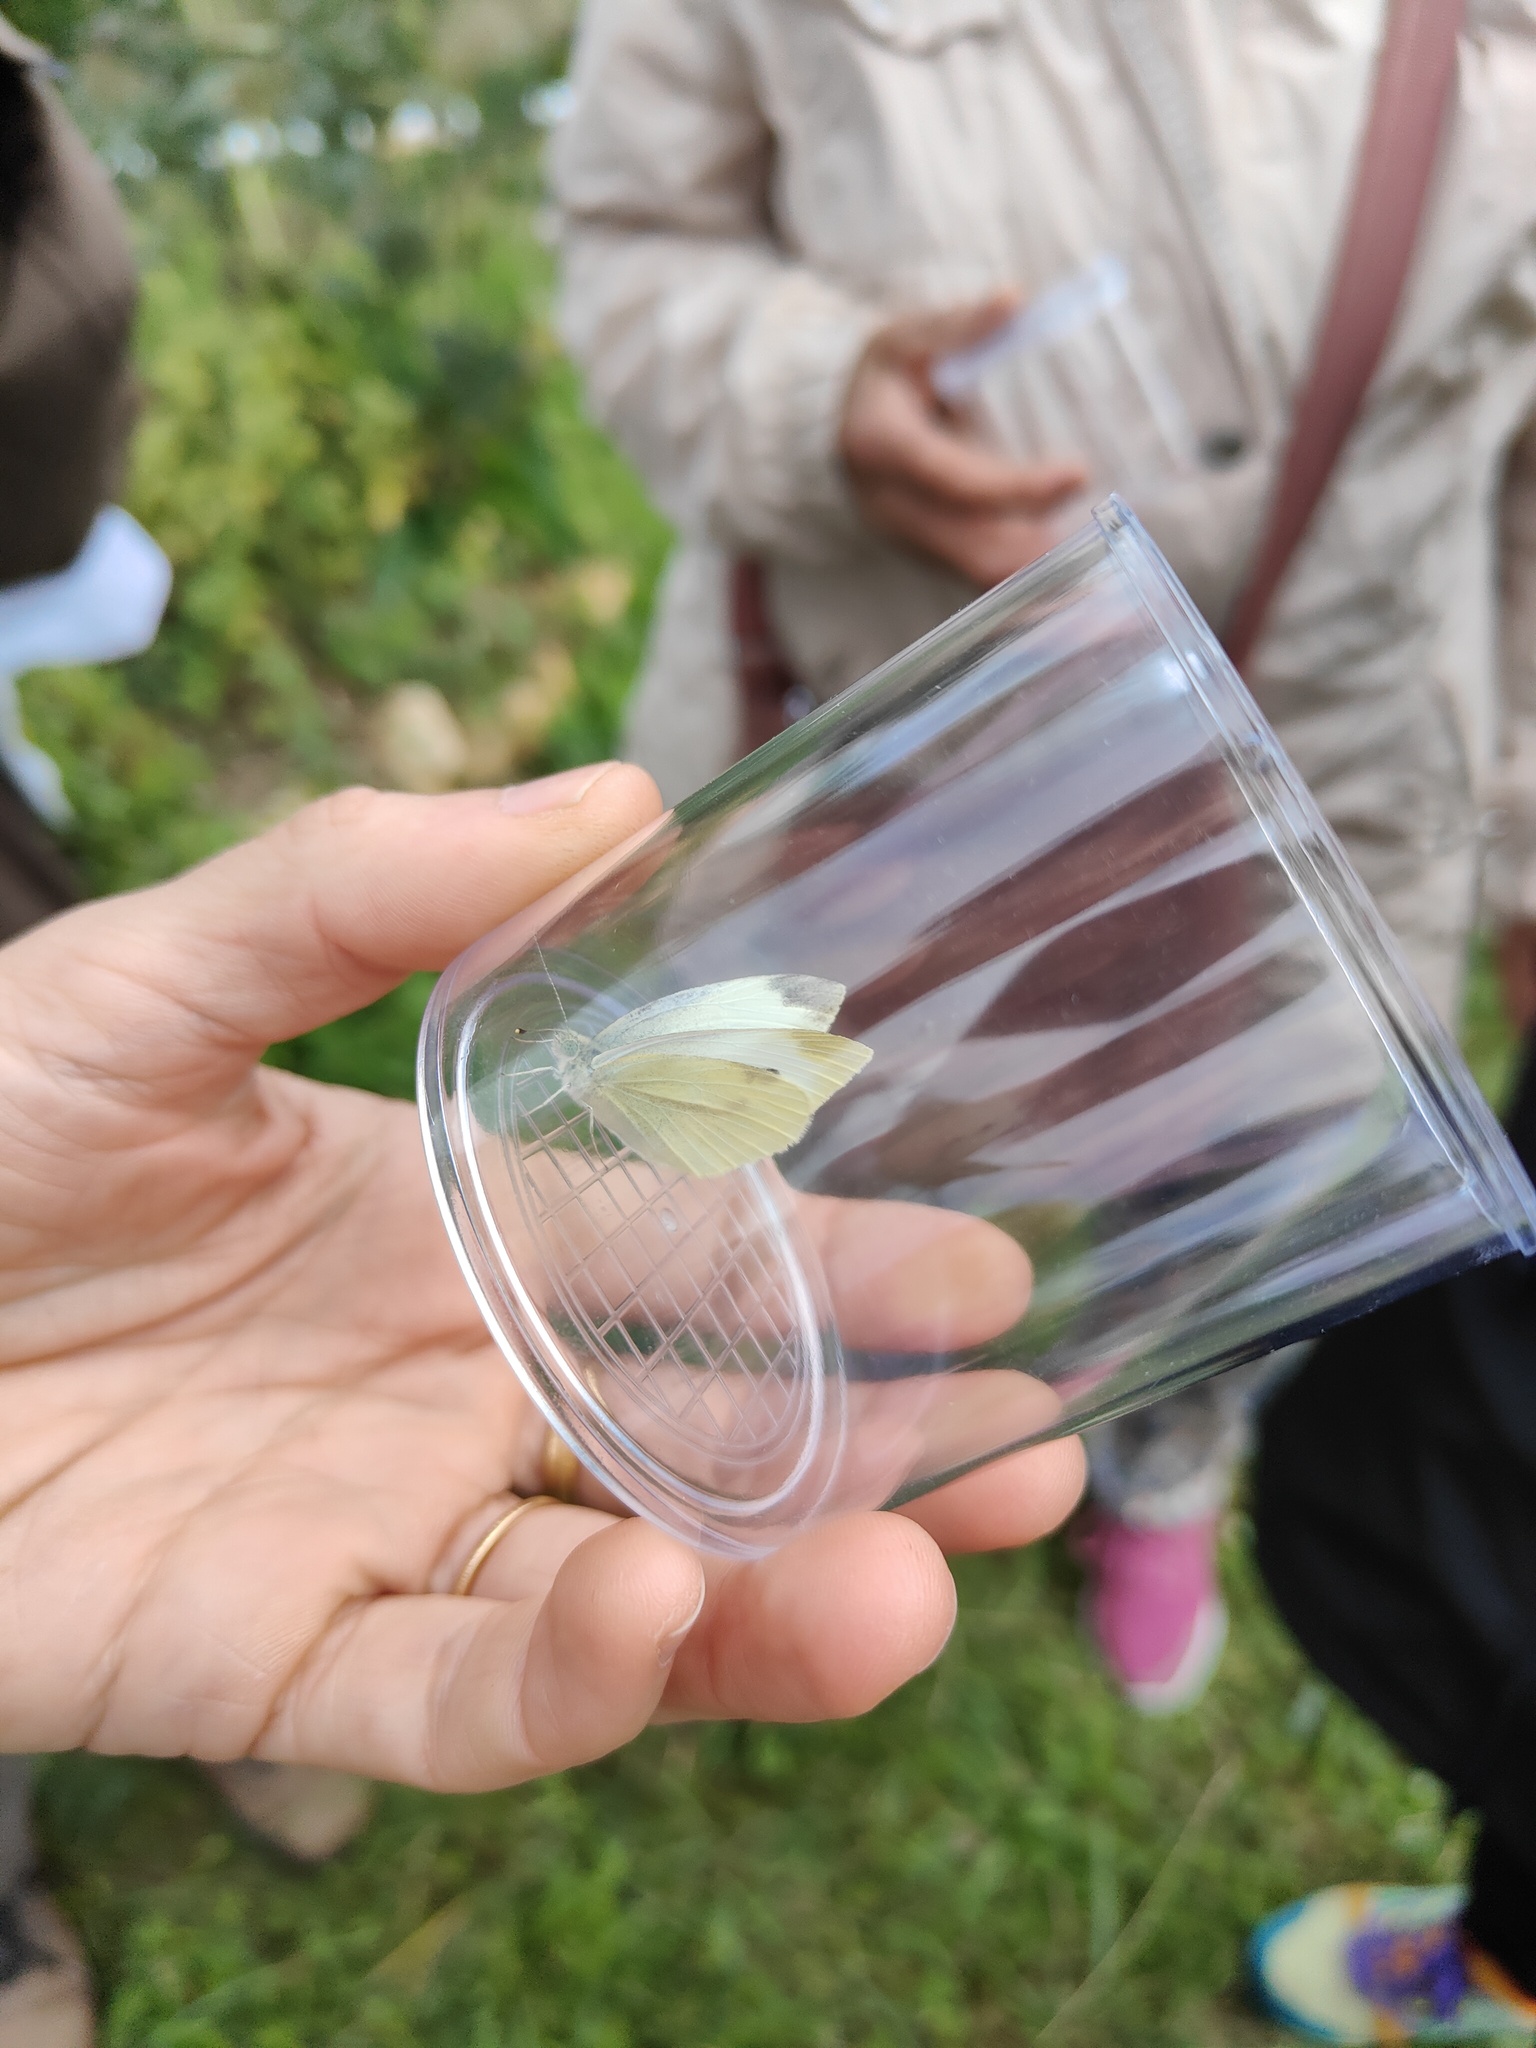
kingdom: Animalia
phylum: Arthropoda
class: Insecta
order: Lepidoptera
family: Pieridae
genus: Pieris
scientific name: Pieris rapae
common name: Small white
